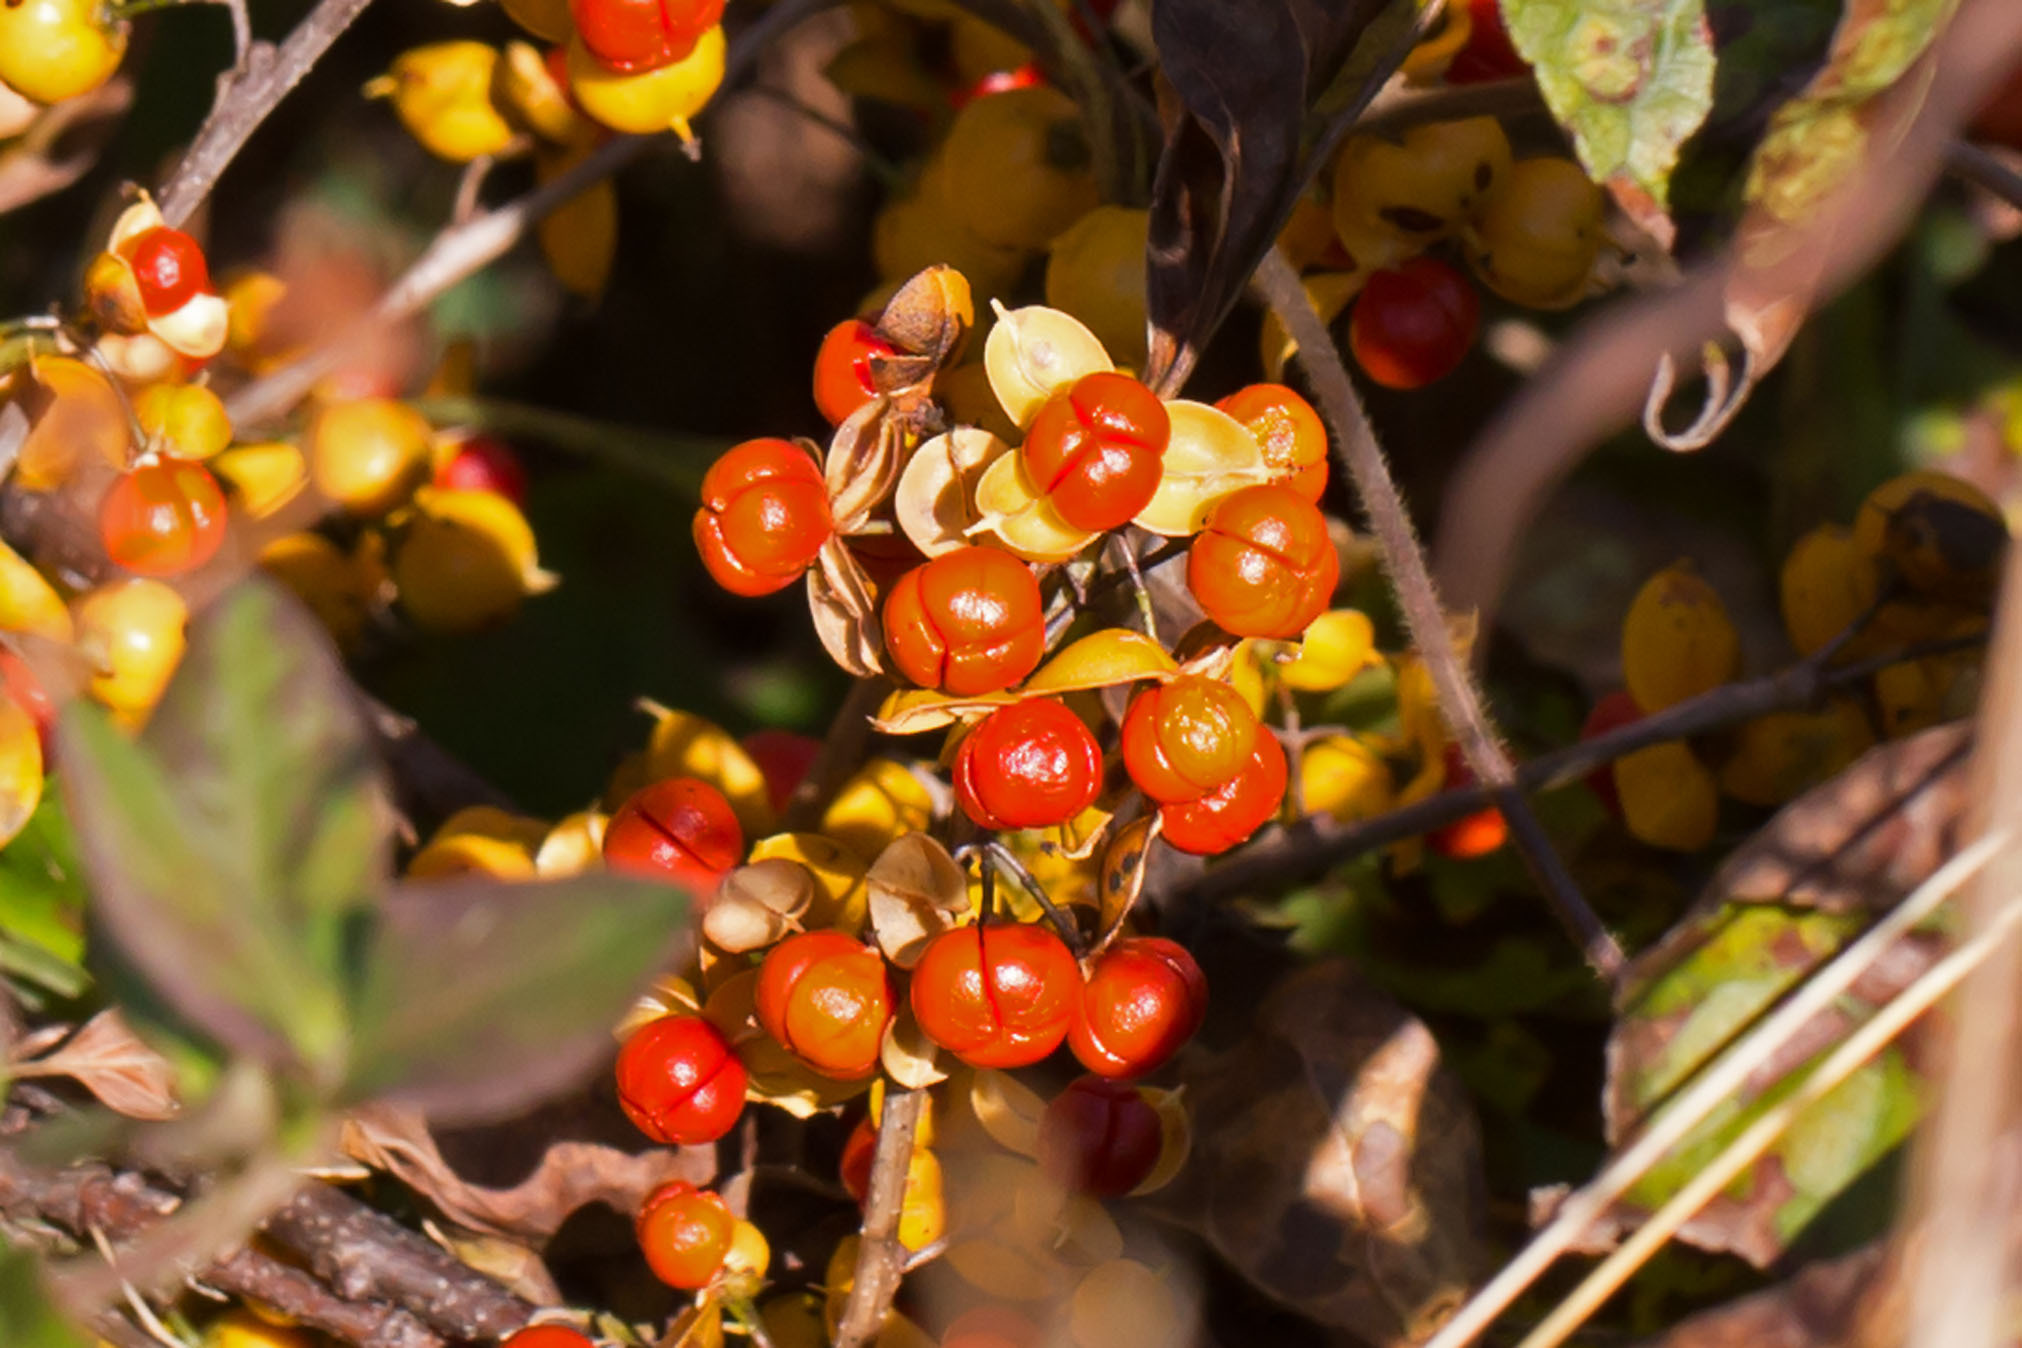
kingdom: Plantae
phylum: Tracheophyta
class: Magnoliopsida
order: Celastrales
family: Celastraceae
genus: Celastrus
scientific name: Celastrus orbiculatus
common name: Oriental bittersweet
